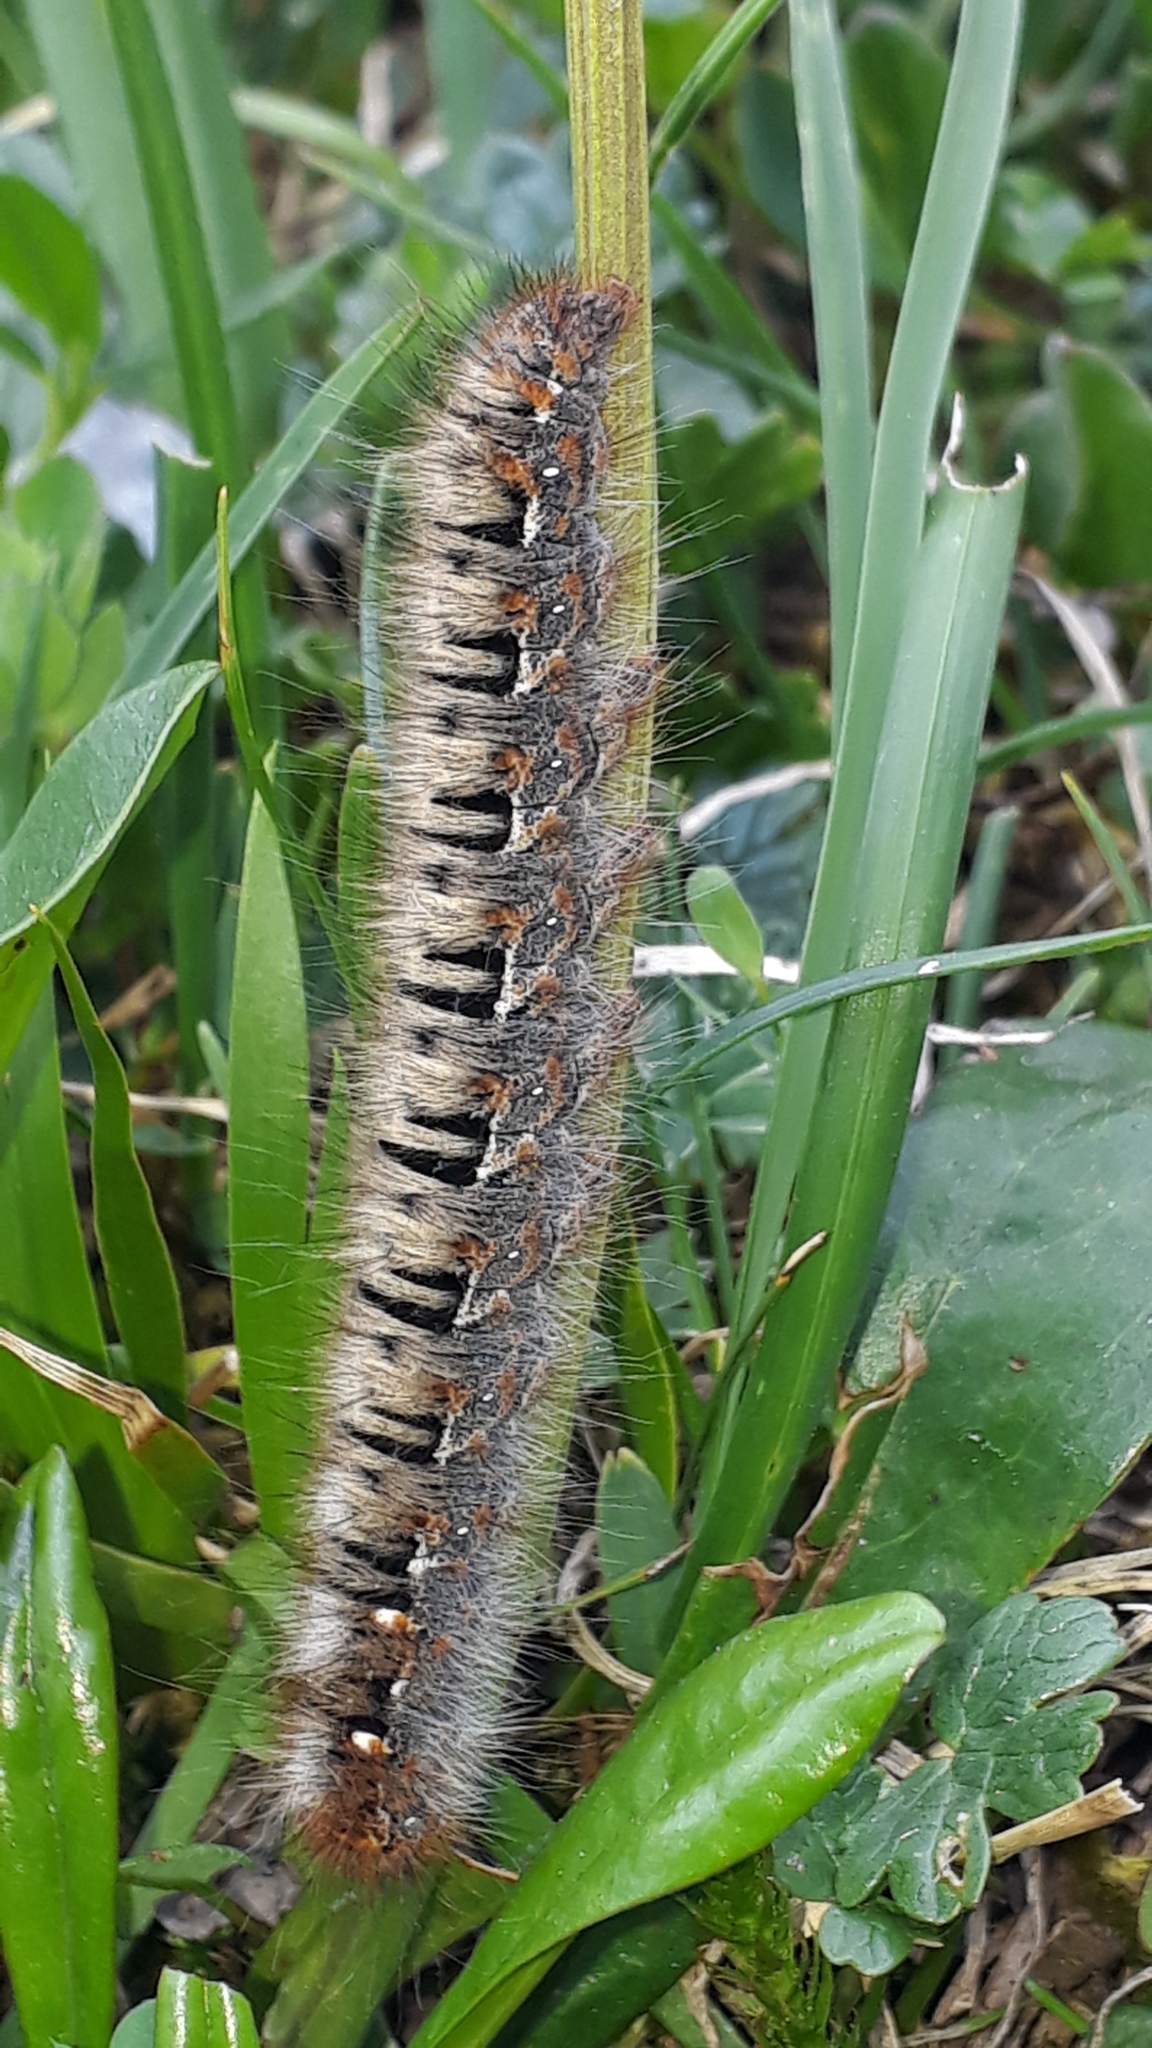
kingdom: Animalia
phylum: Arthropoda
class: Insecta
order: Lepidoptera
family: Lasiocampidae
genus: Lasiocampa
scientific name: Lasiocampa quercus
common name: Oak eggar
